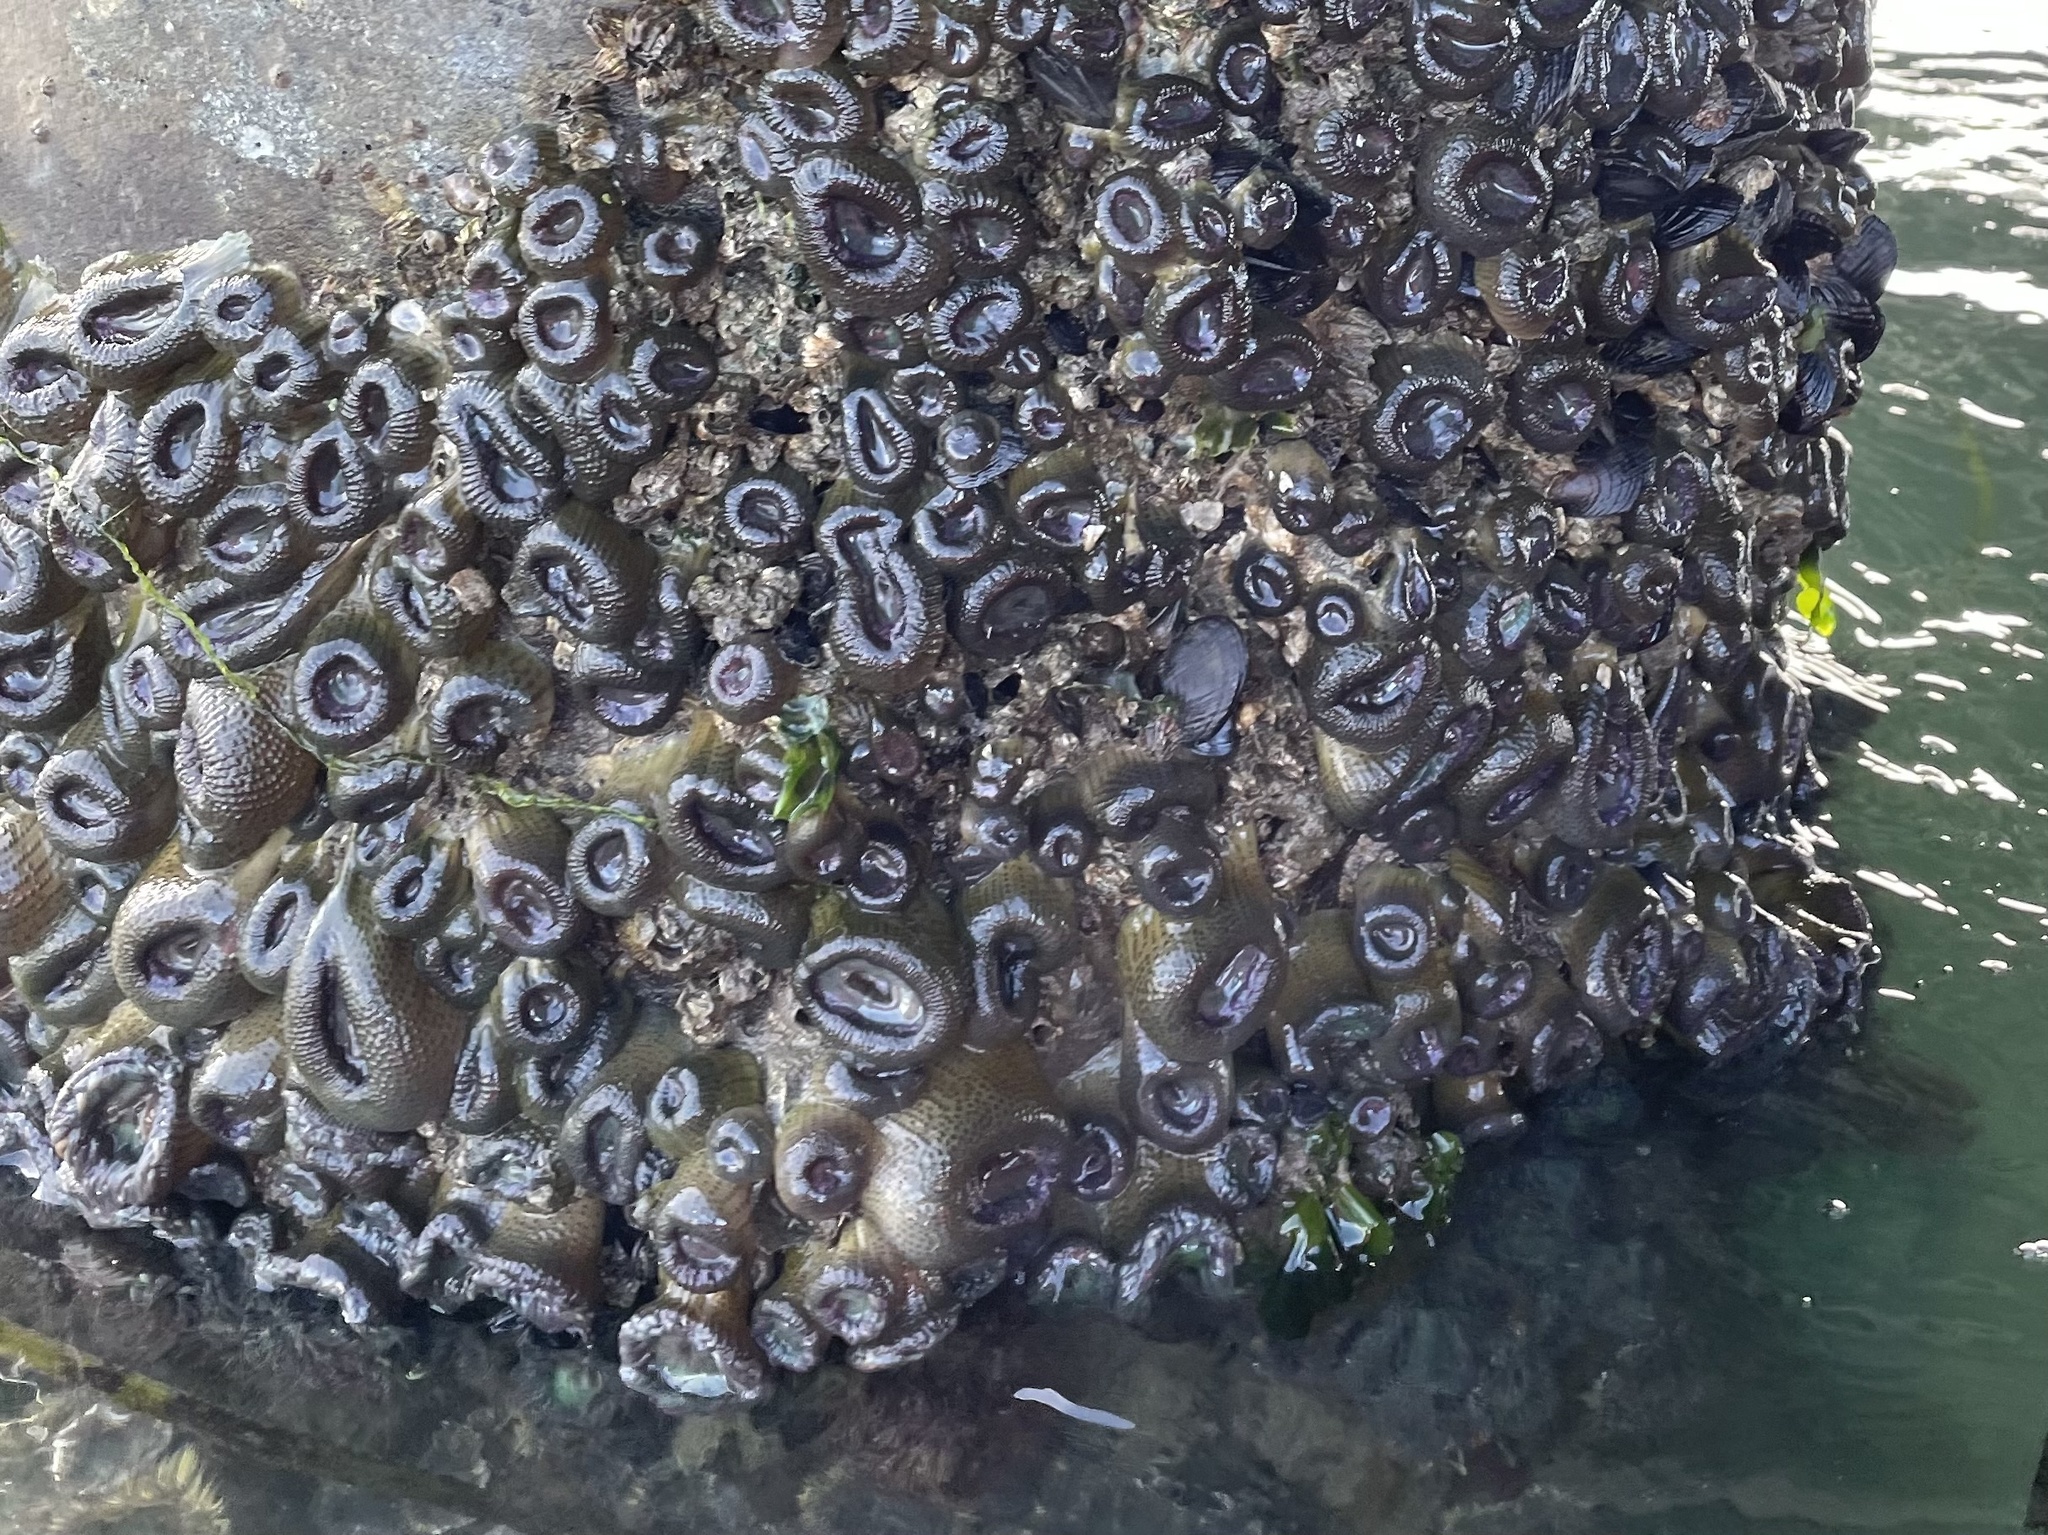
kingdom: Animalia
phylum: Cnidaria
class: Anthozoa
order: Actiniaria
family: Actiniidae
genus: Anthopleura
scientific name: Anthopleura elegantissima
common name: Clonal anemone
